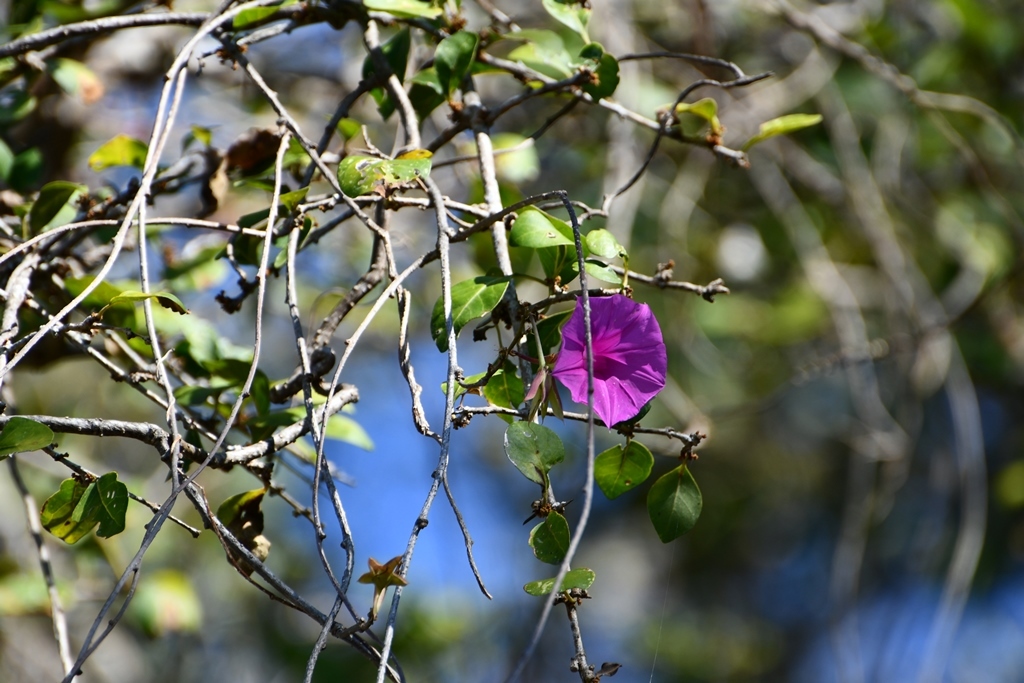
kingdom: Plantae
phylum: Tracheophyta
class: Magnoliopsida
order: Solanales
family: Convolvulaceae
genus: Ipomoea
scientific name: Ipomoea bernoulliana
